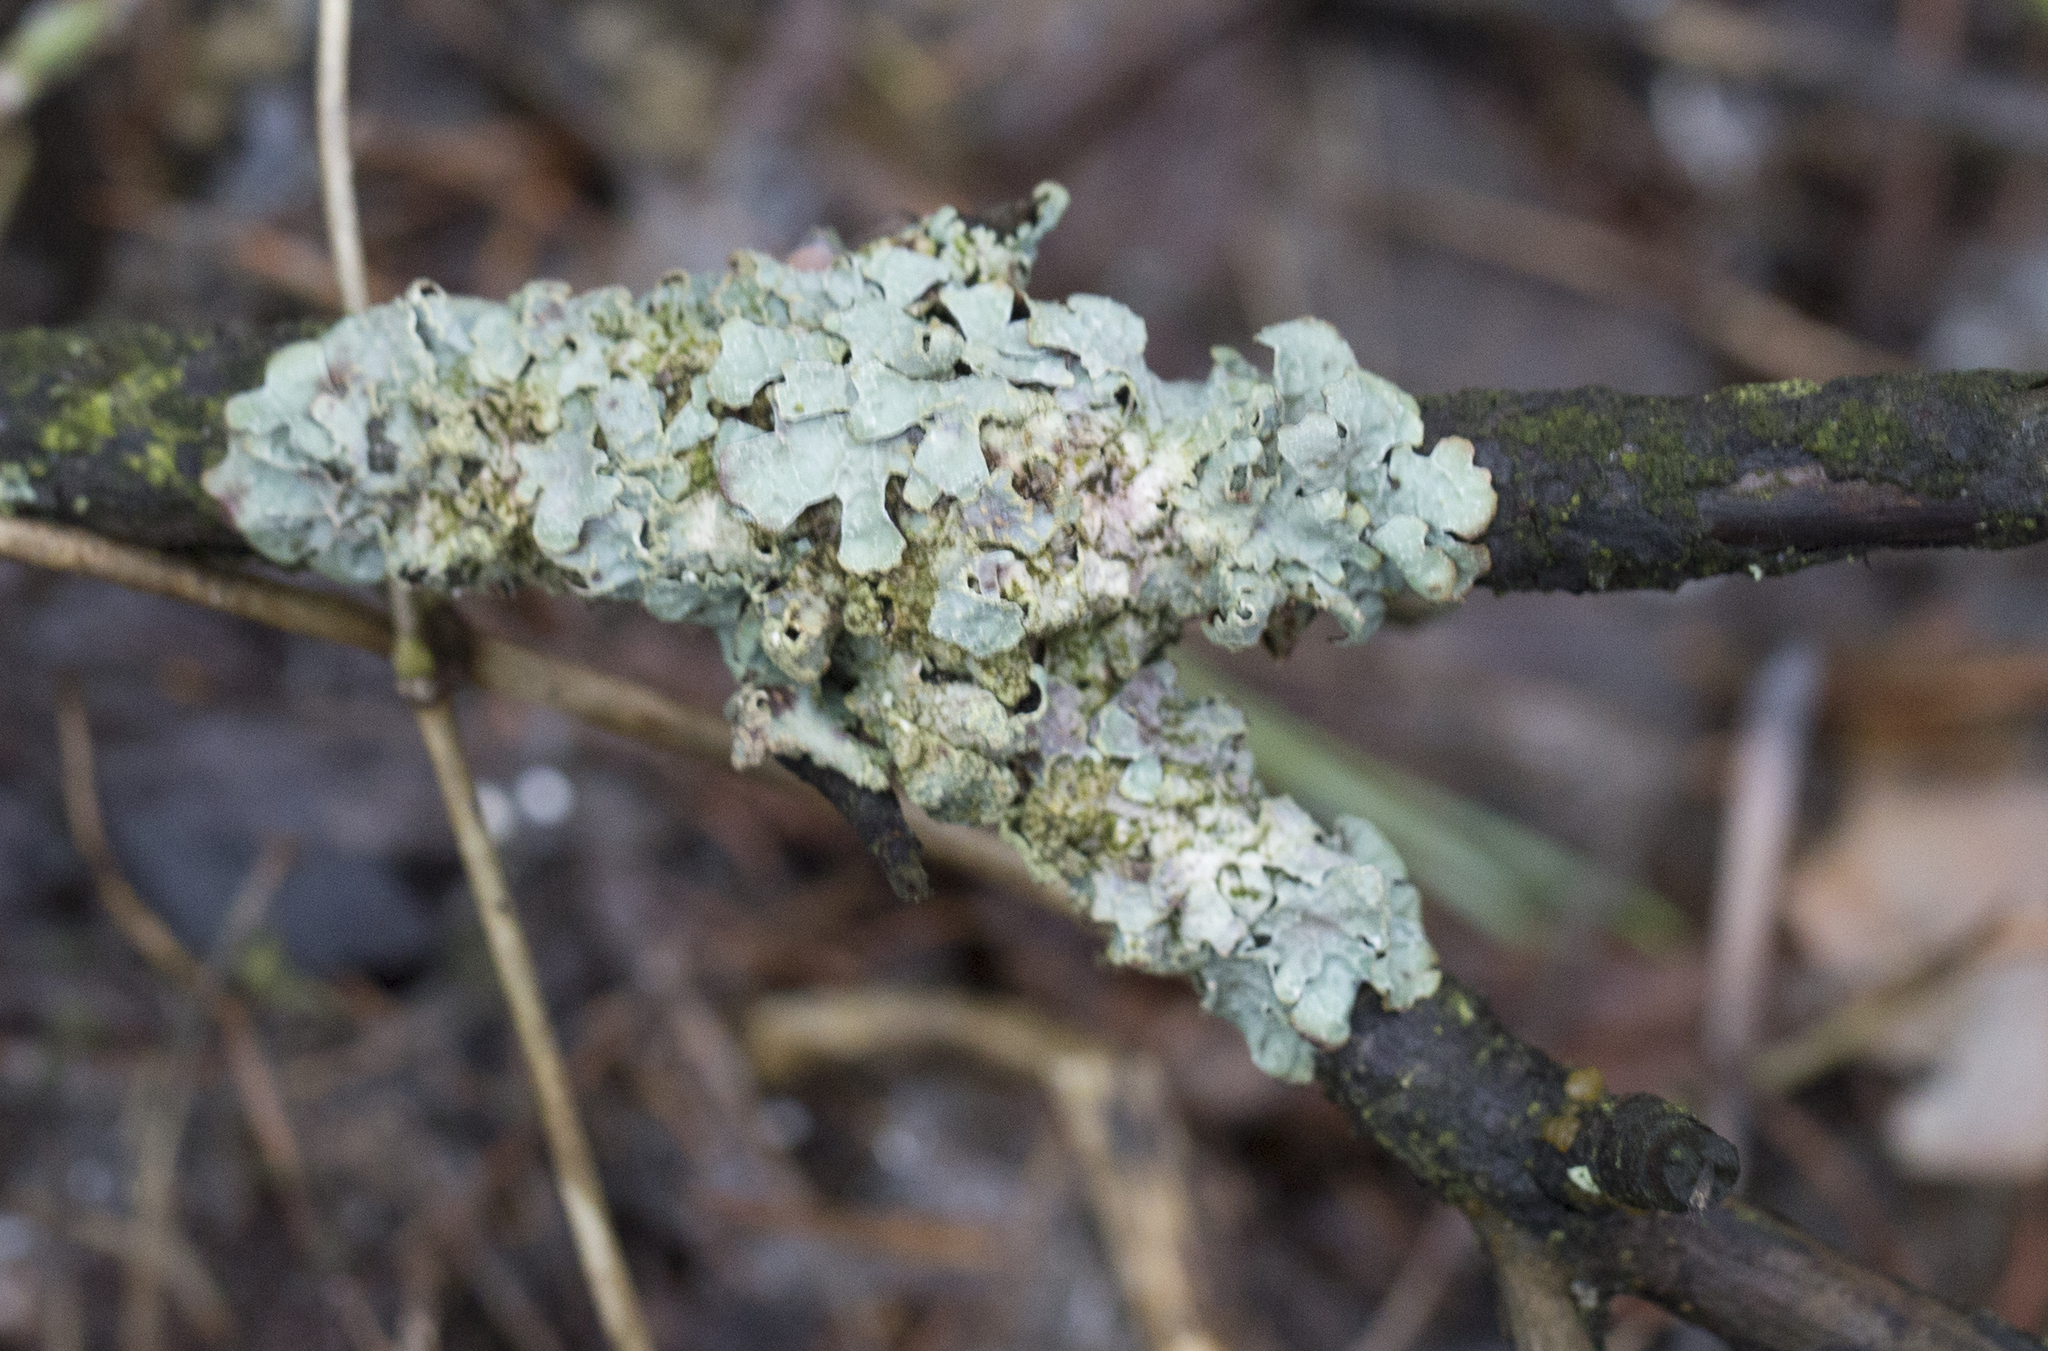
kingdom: Fungi
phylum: Ascomycota
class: Lecanoromycetes
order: Lecanorales
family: Parmeliaceae
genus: Parmelia
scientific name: Parmelia sulcata
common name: Netted shield lichen
